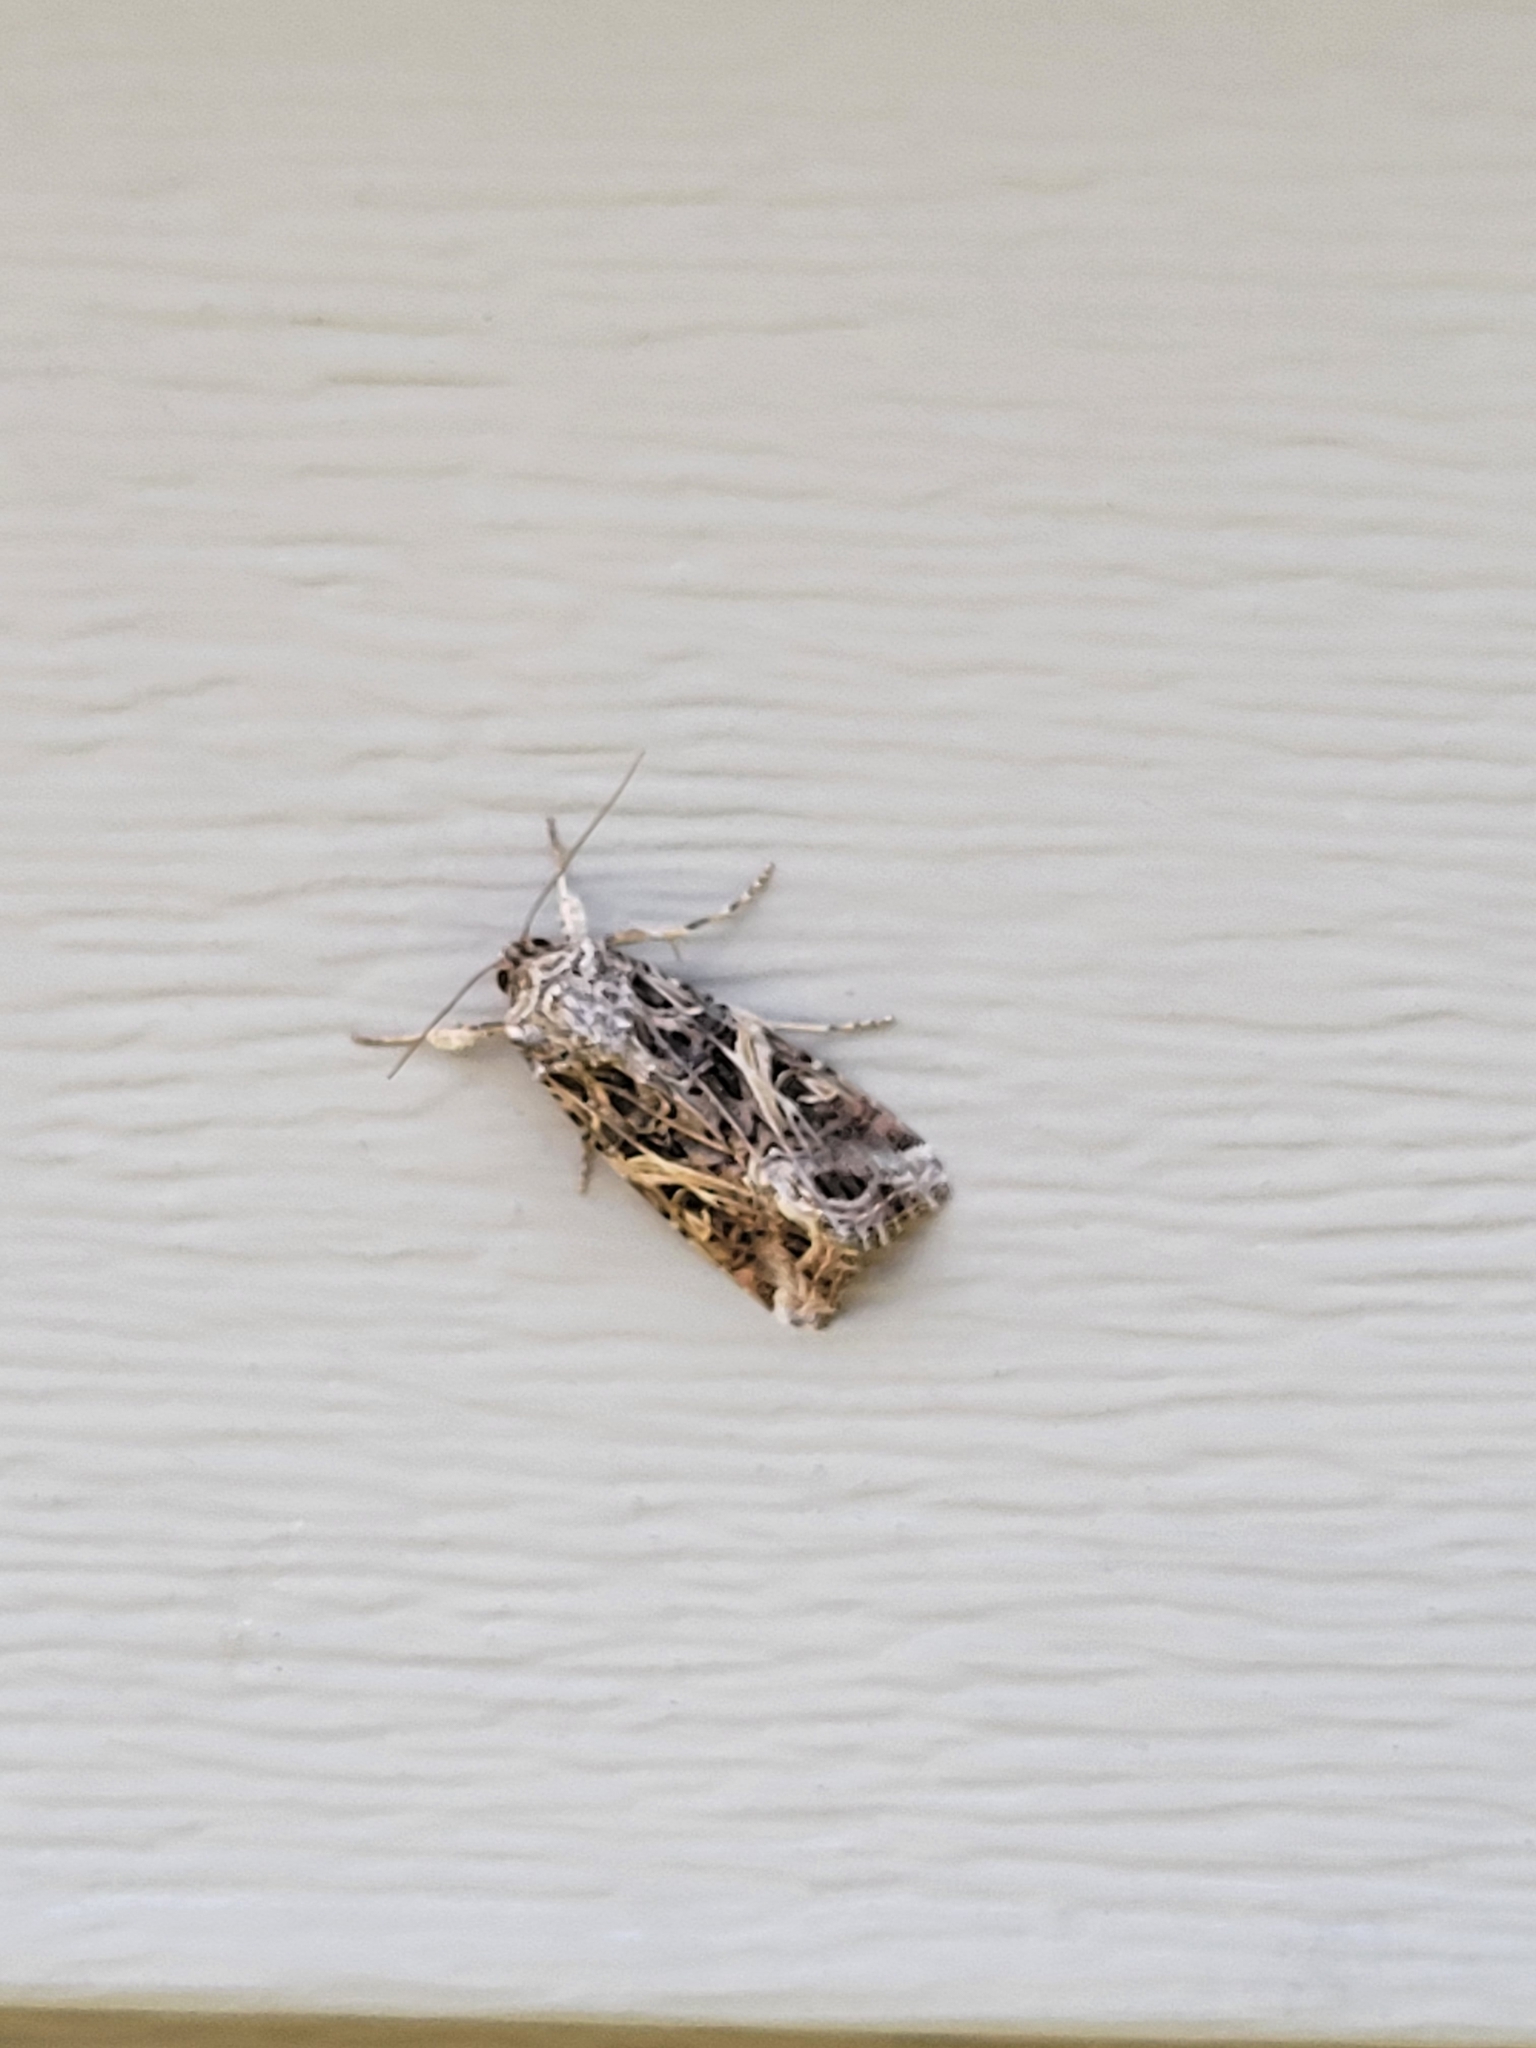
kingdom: Animalia
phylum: Arthropoda
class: Insecta
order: Lepidoptera
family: Noctuidae
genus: Spodoptera
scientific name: Spodoptera ornithogalli
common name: Yellow-striped armyworm
